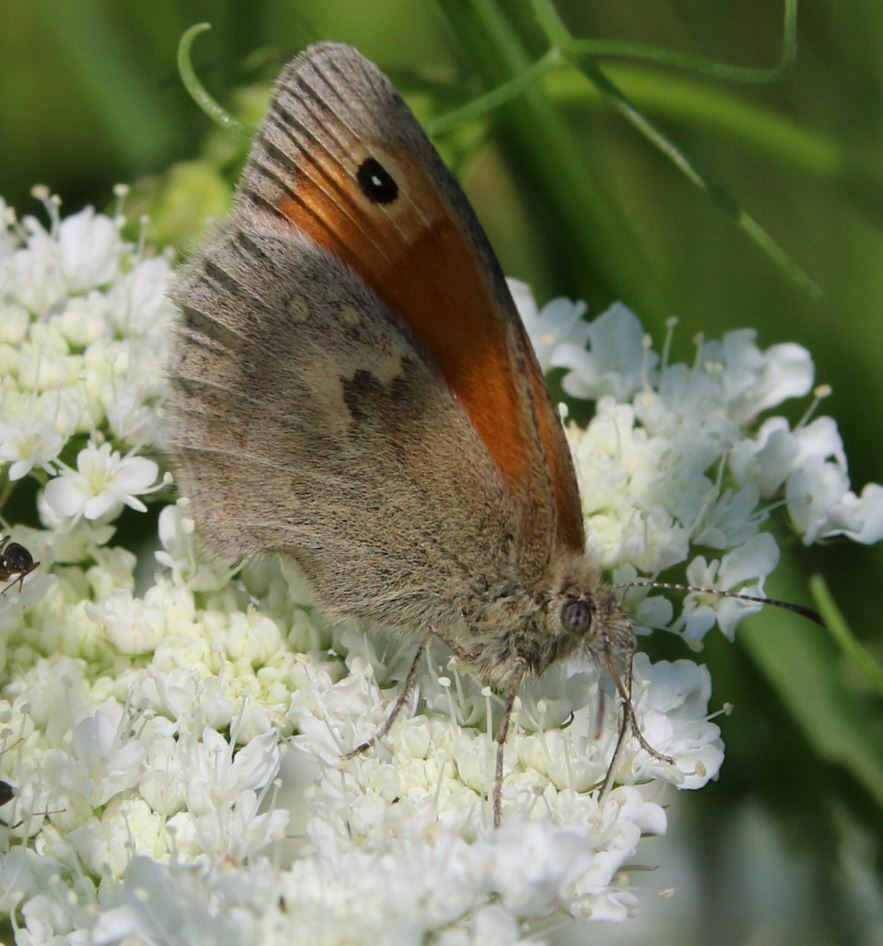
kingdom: Animalia
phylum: Arthropoda
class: Insecta
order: Lepidoptera
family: Nymphalidae
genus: Coenonympha
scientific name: Coenonympha pamphilus
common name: Small heath
